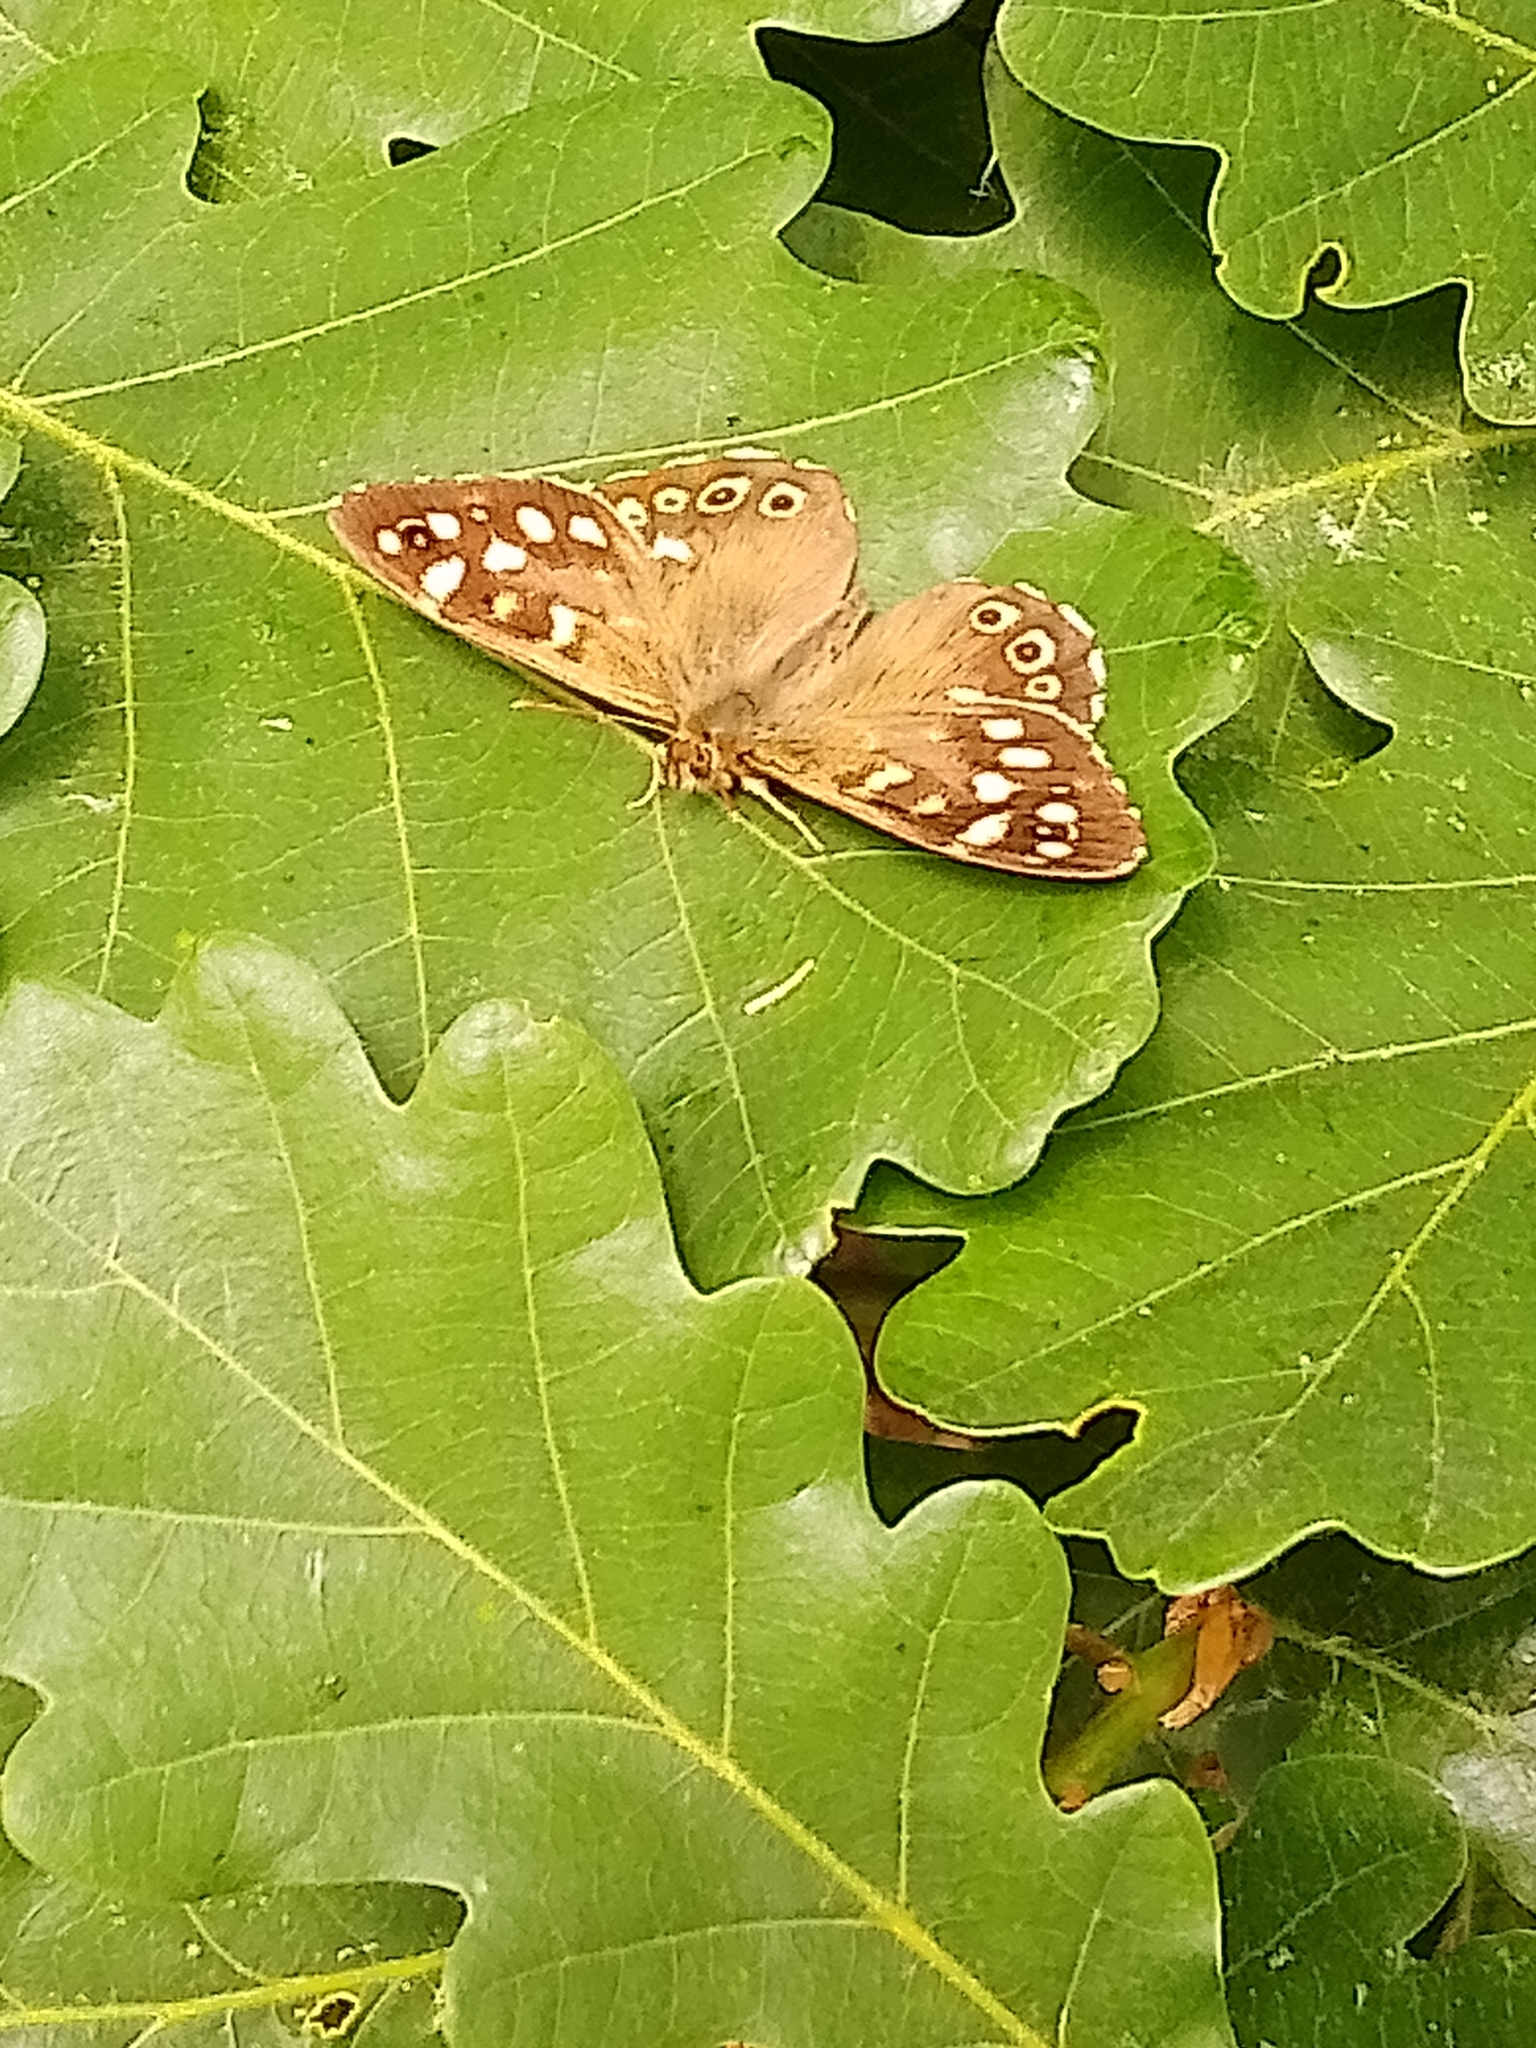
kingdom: Animalia
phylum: Arthropoda
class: Insecta
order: Lepidoptera
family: Nymphalidae
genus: Pararge
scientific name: Pararge aegeria
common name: Speckled wood
